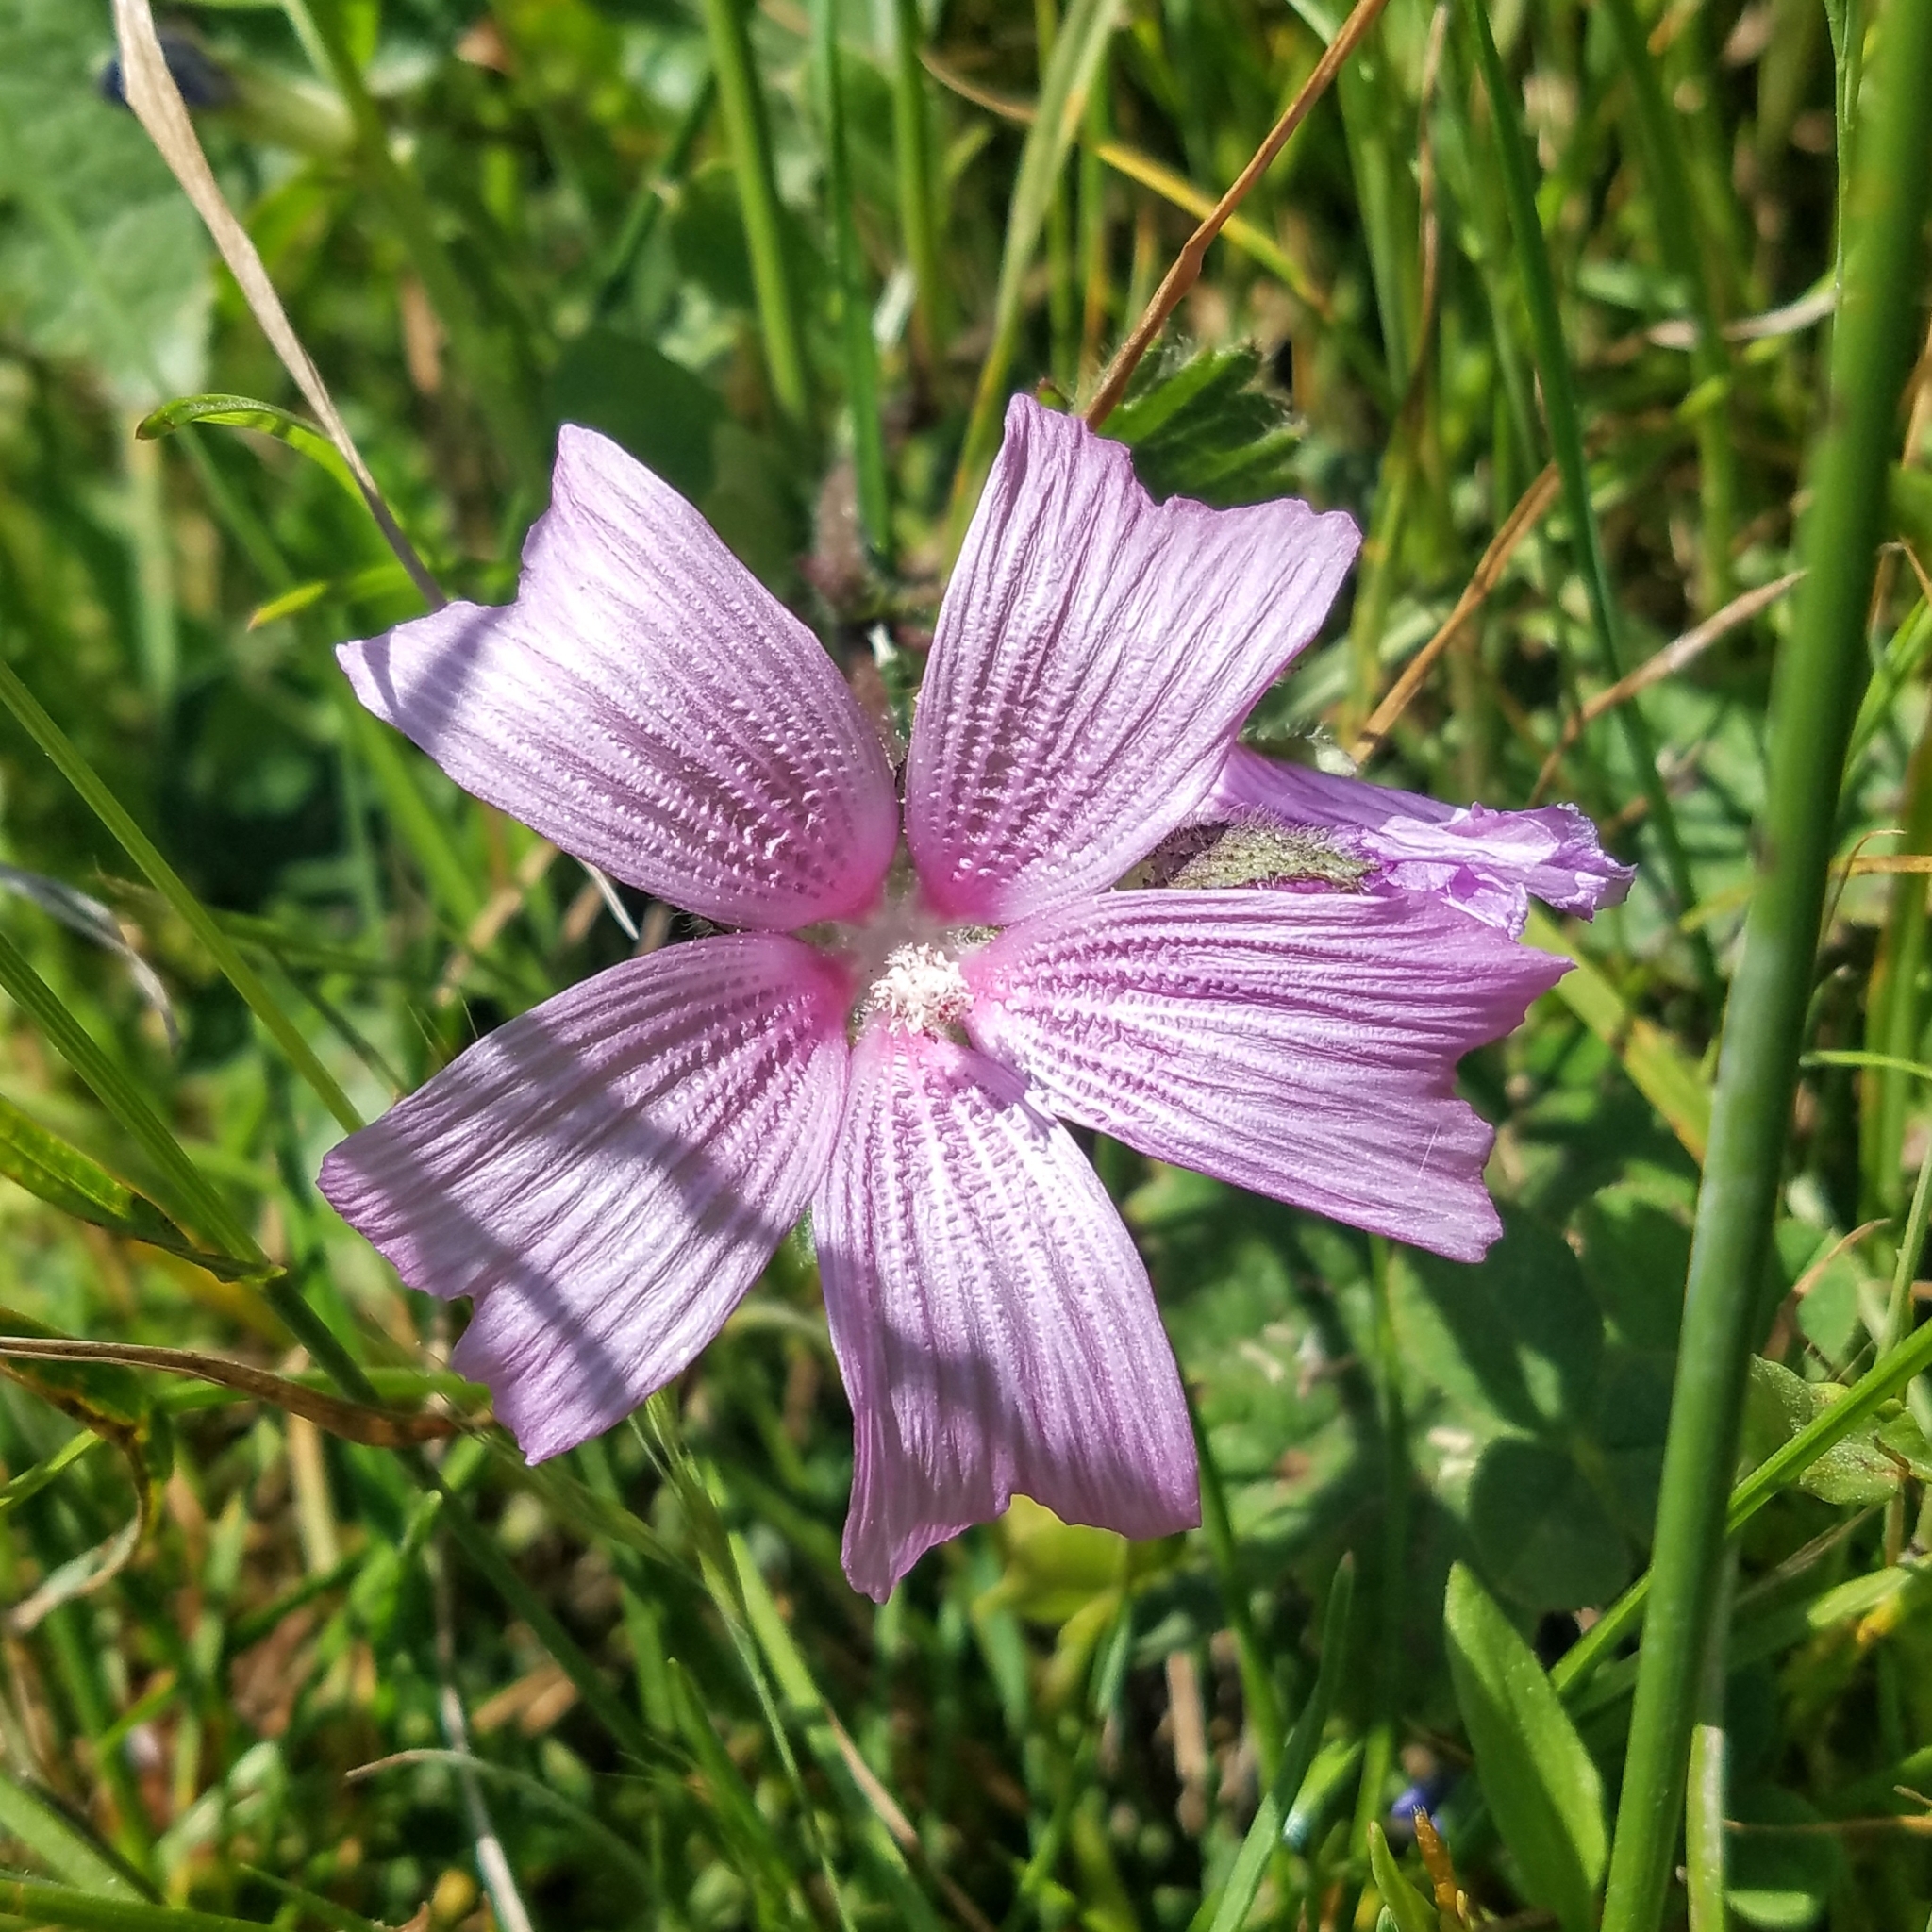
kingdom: Plantae
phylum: Tracheophyta
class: Magnoliopsida
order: Malvales
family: Malvaceae
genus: Sidalcea
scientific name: Sidalcea malviflora
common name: Greek mallow
